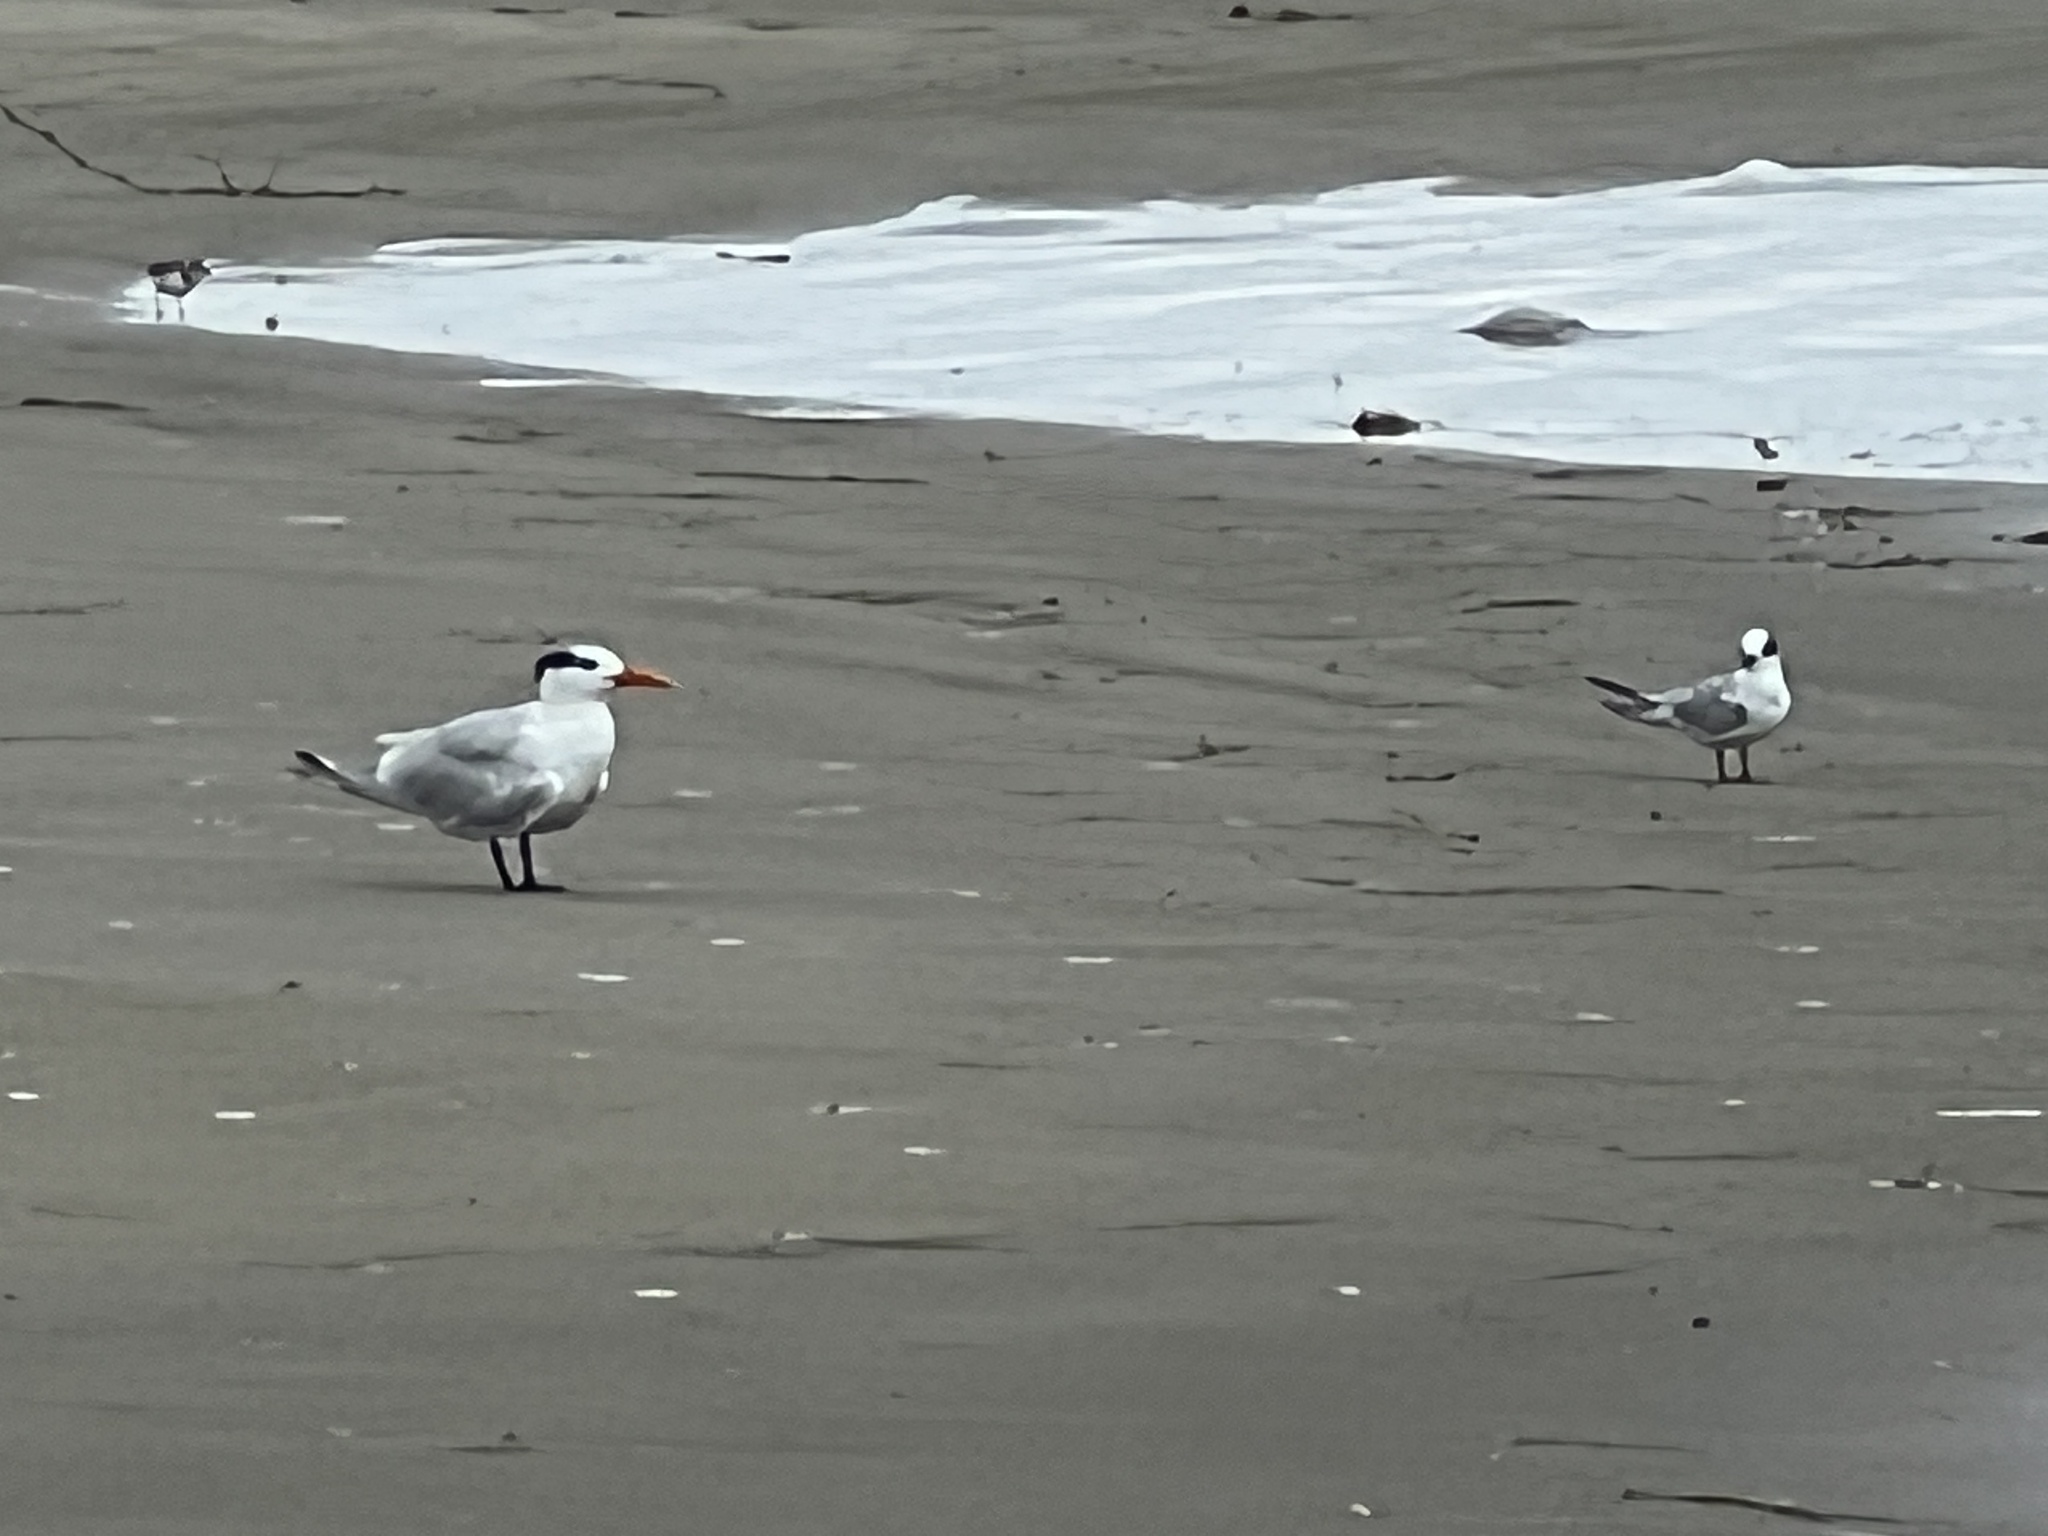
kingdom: Animalia
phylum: Chordata
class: Aves
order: Charadriiformes
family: Laridae
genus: Sterna
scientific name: Sterna forsteri
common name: Forster's tern
